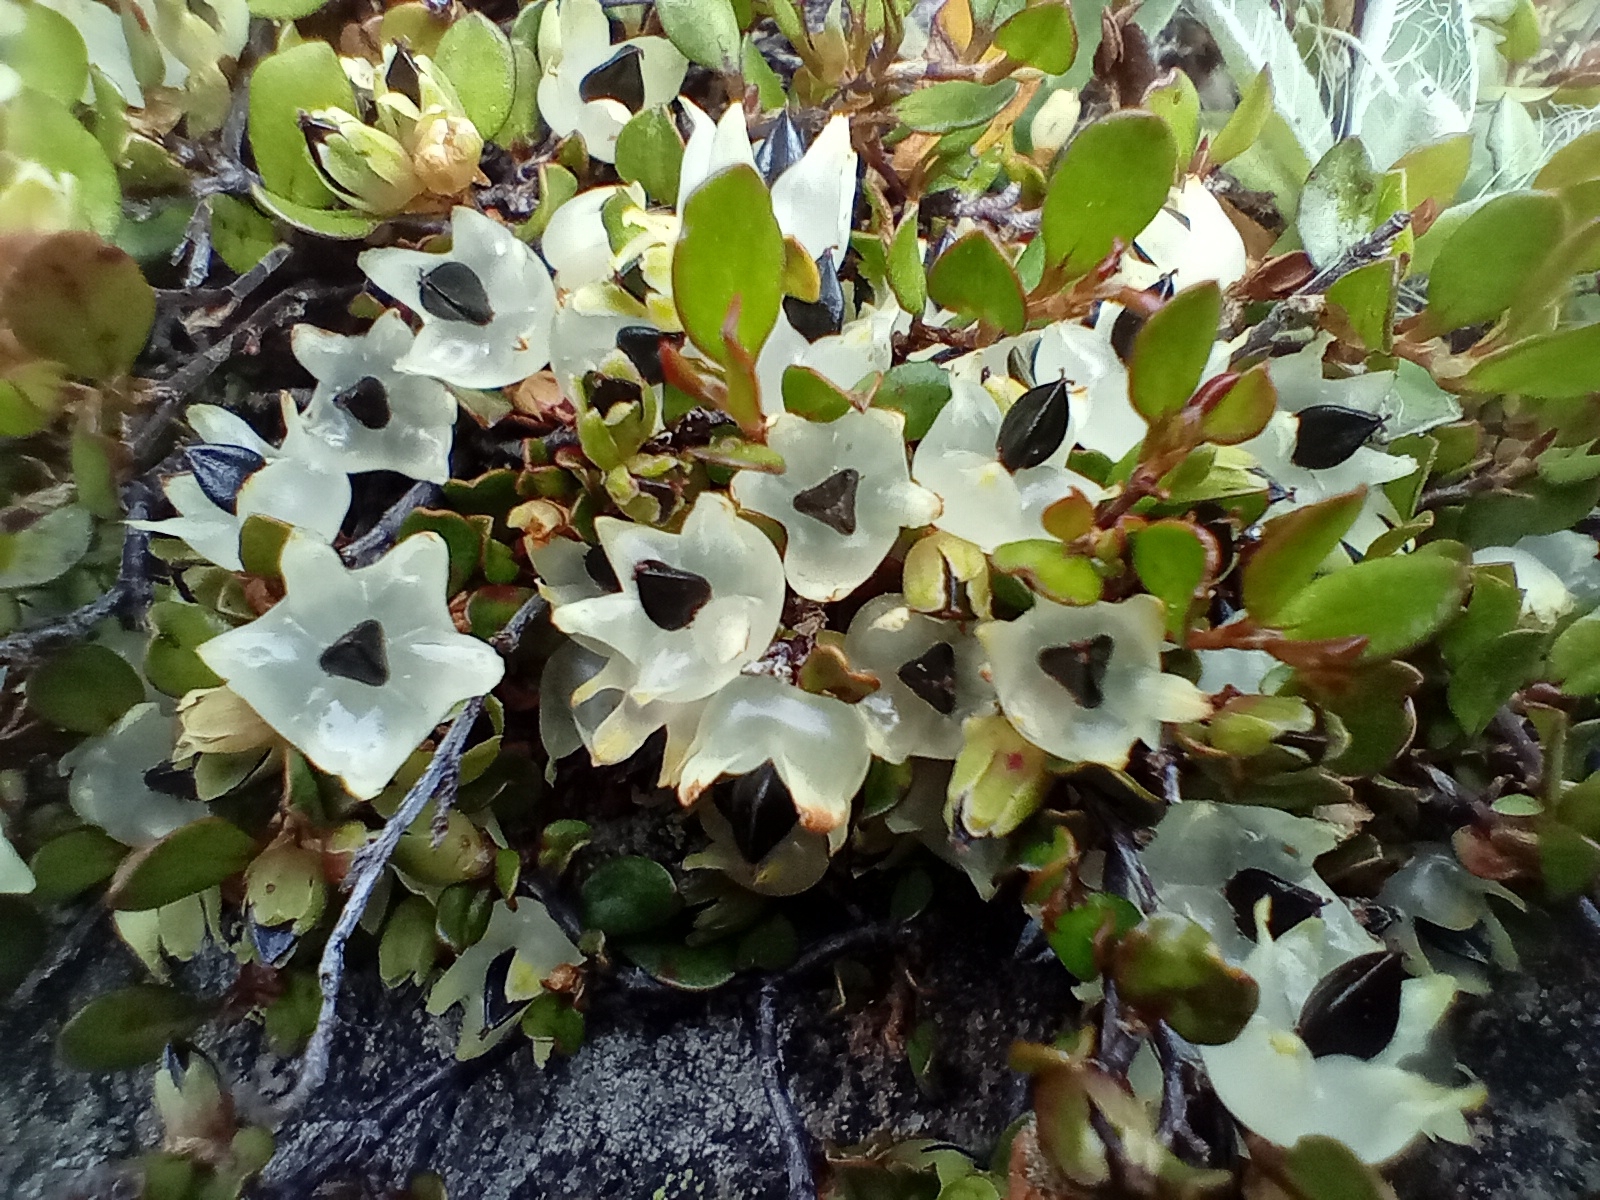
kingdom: Plantae
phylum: Tracheophyta
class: Magnoliopsida
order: Caryophyllales
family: Polygonaceae
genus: Muehlenbeckia
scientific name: Muehlenbeckia axillaris
